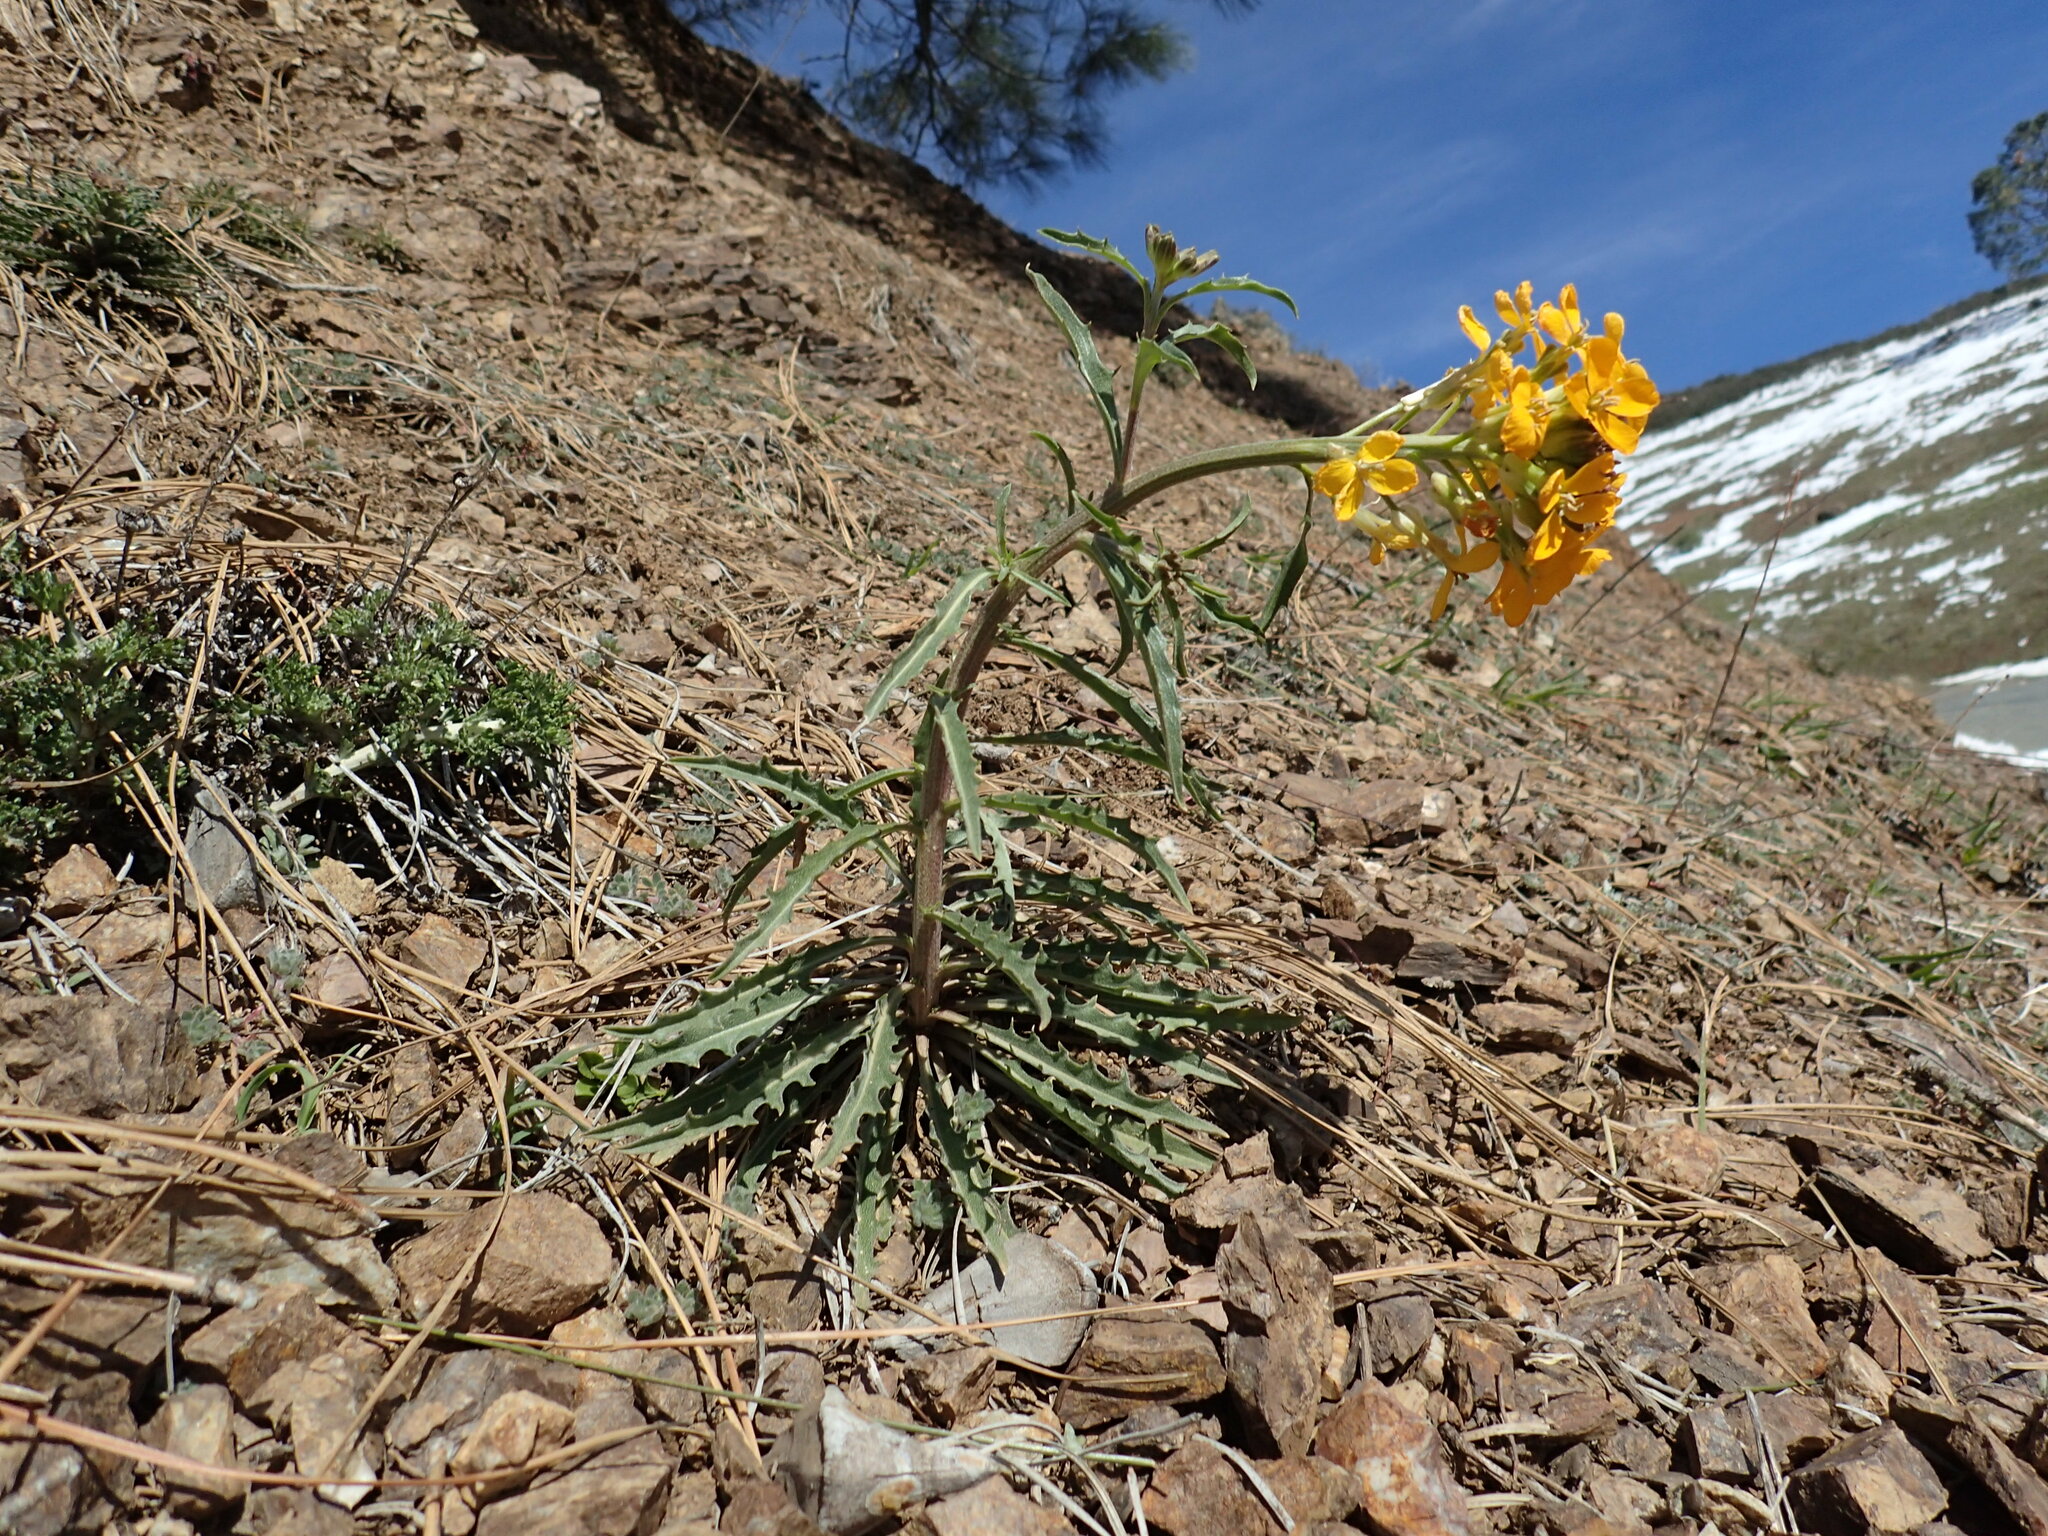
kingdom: Plantae
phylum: Tracheophyta
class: Magnoliopsida
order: Brassicales
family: Brassicaceae
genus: Erysimum
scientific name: Erysimum capitatum
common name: Western wallflower
